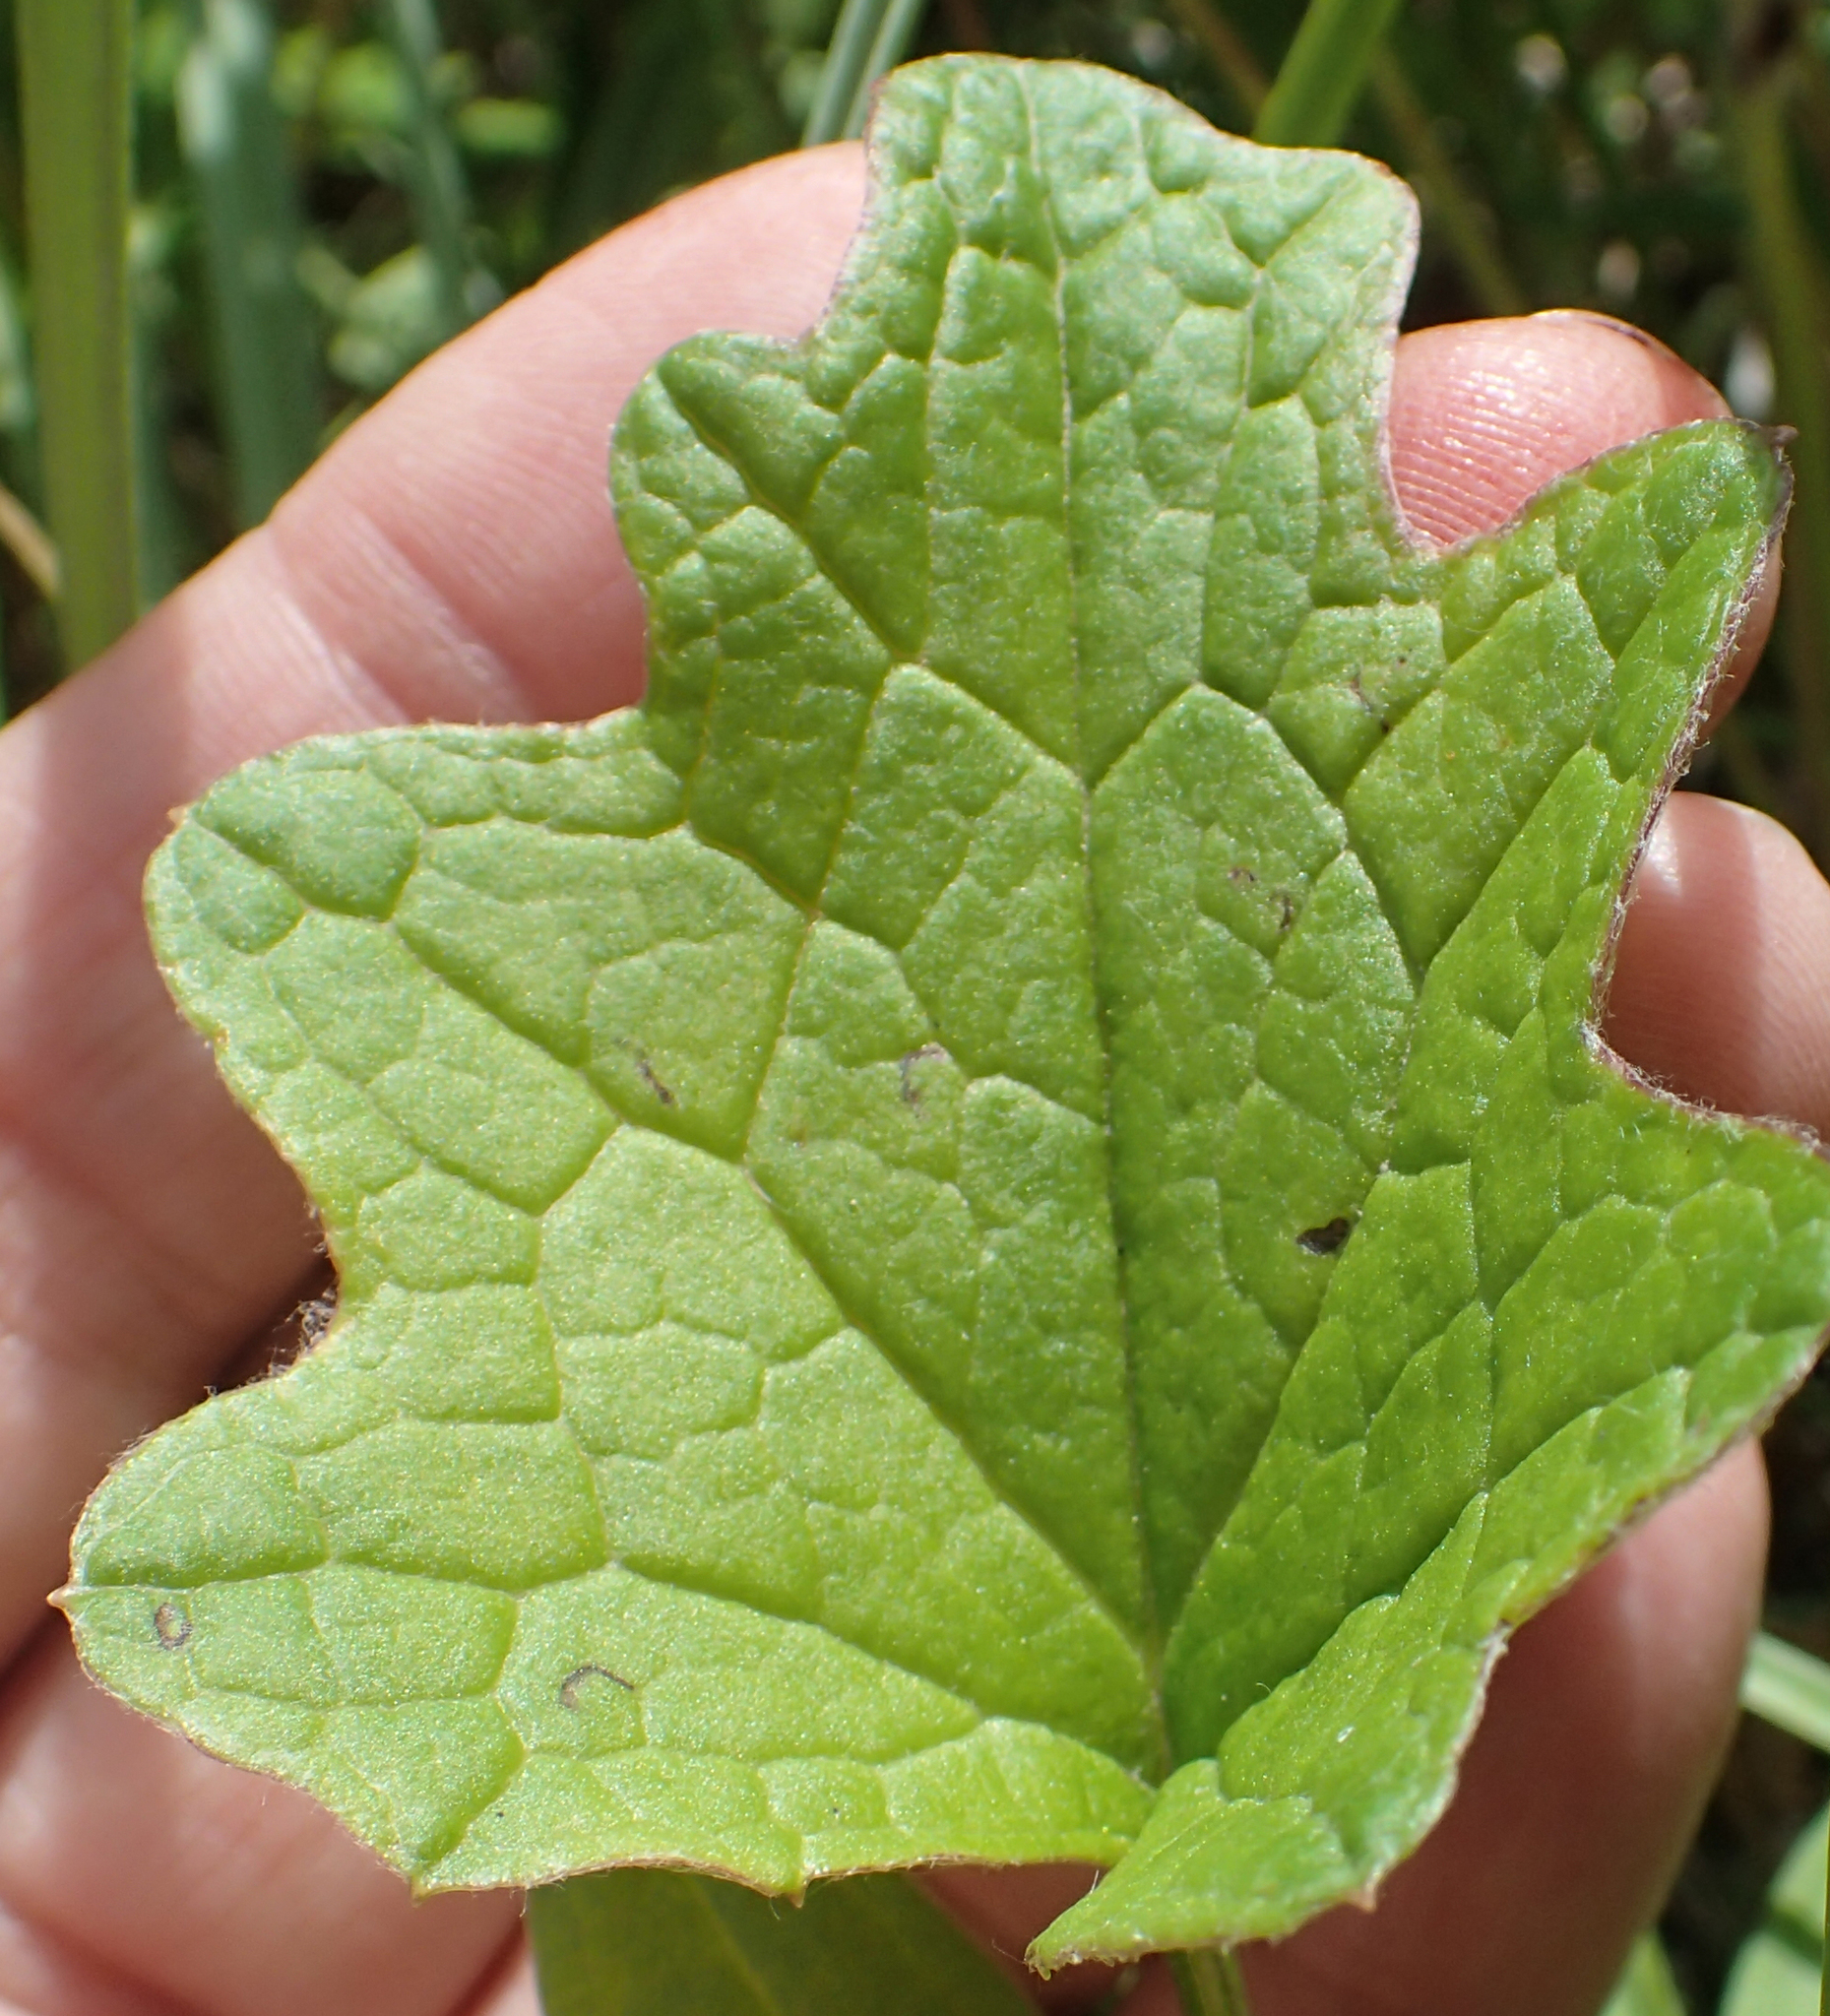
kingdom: Plantae
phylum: Tracheophyta
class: Magnoliopsida
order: Asterales
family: Asteraceae
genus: Petasites
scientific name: Petasites frigidus
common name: Arctic butterbur
